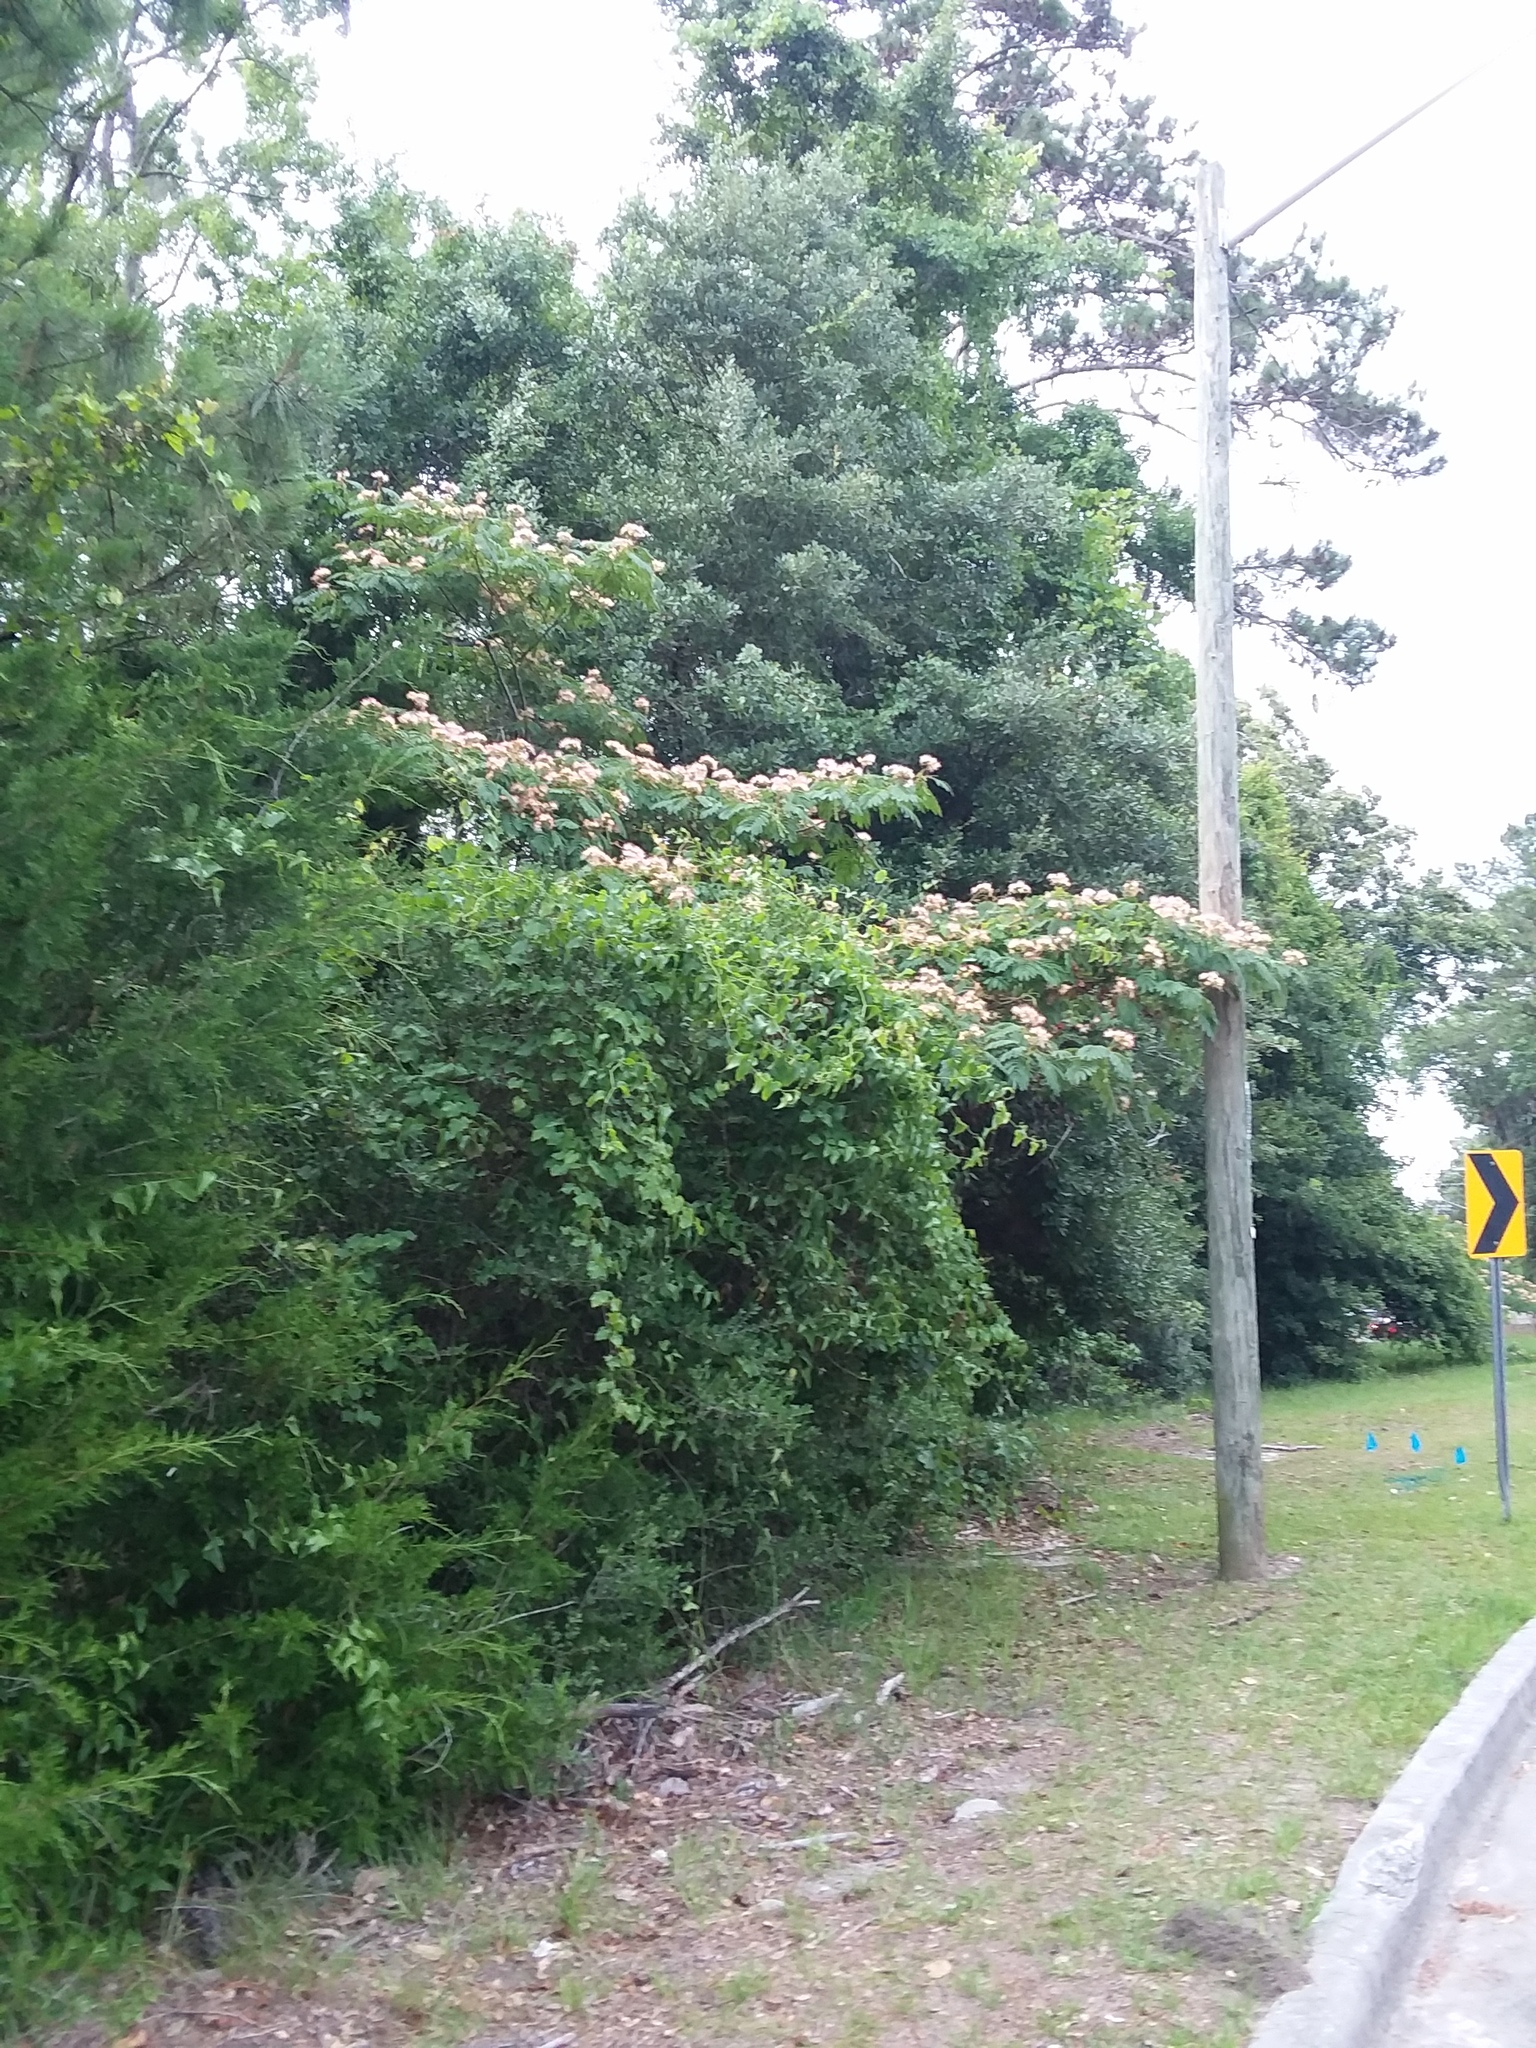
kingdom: Plantae
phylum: Tracheophyta
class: Magnoliopsida
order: Fabales
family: Fabaceae
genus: Albizia
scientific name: Albizia julibrissin
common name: Silktree
